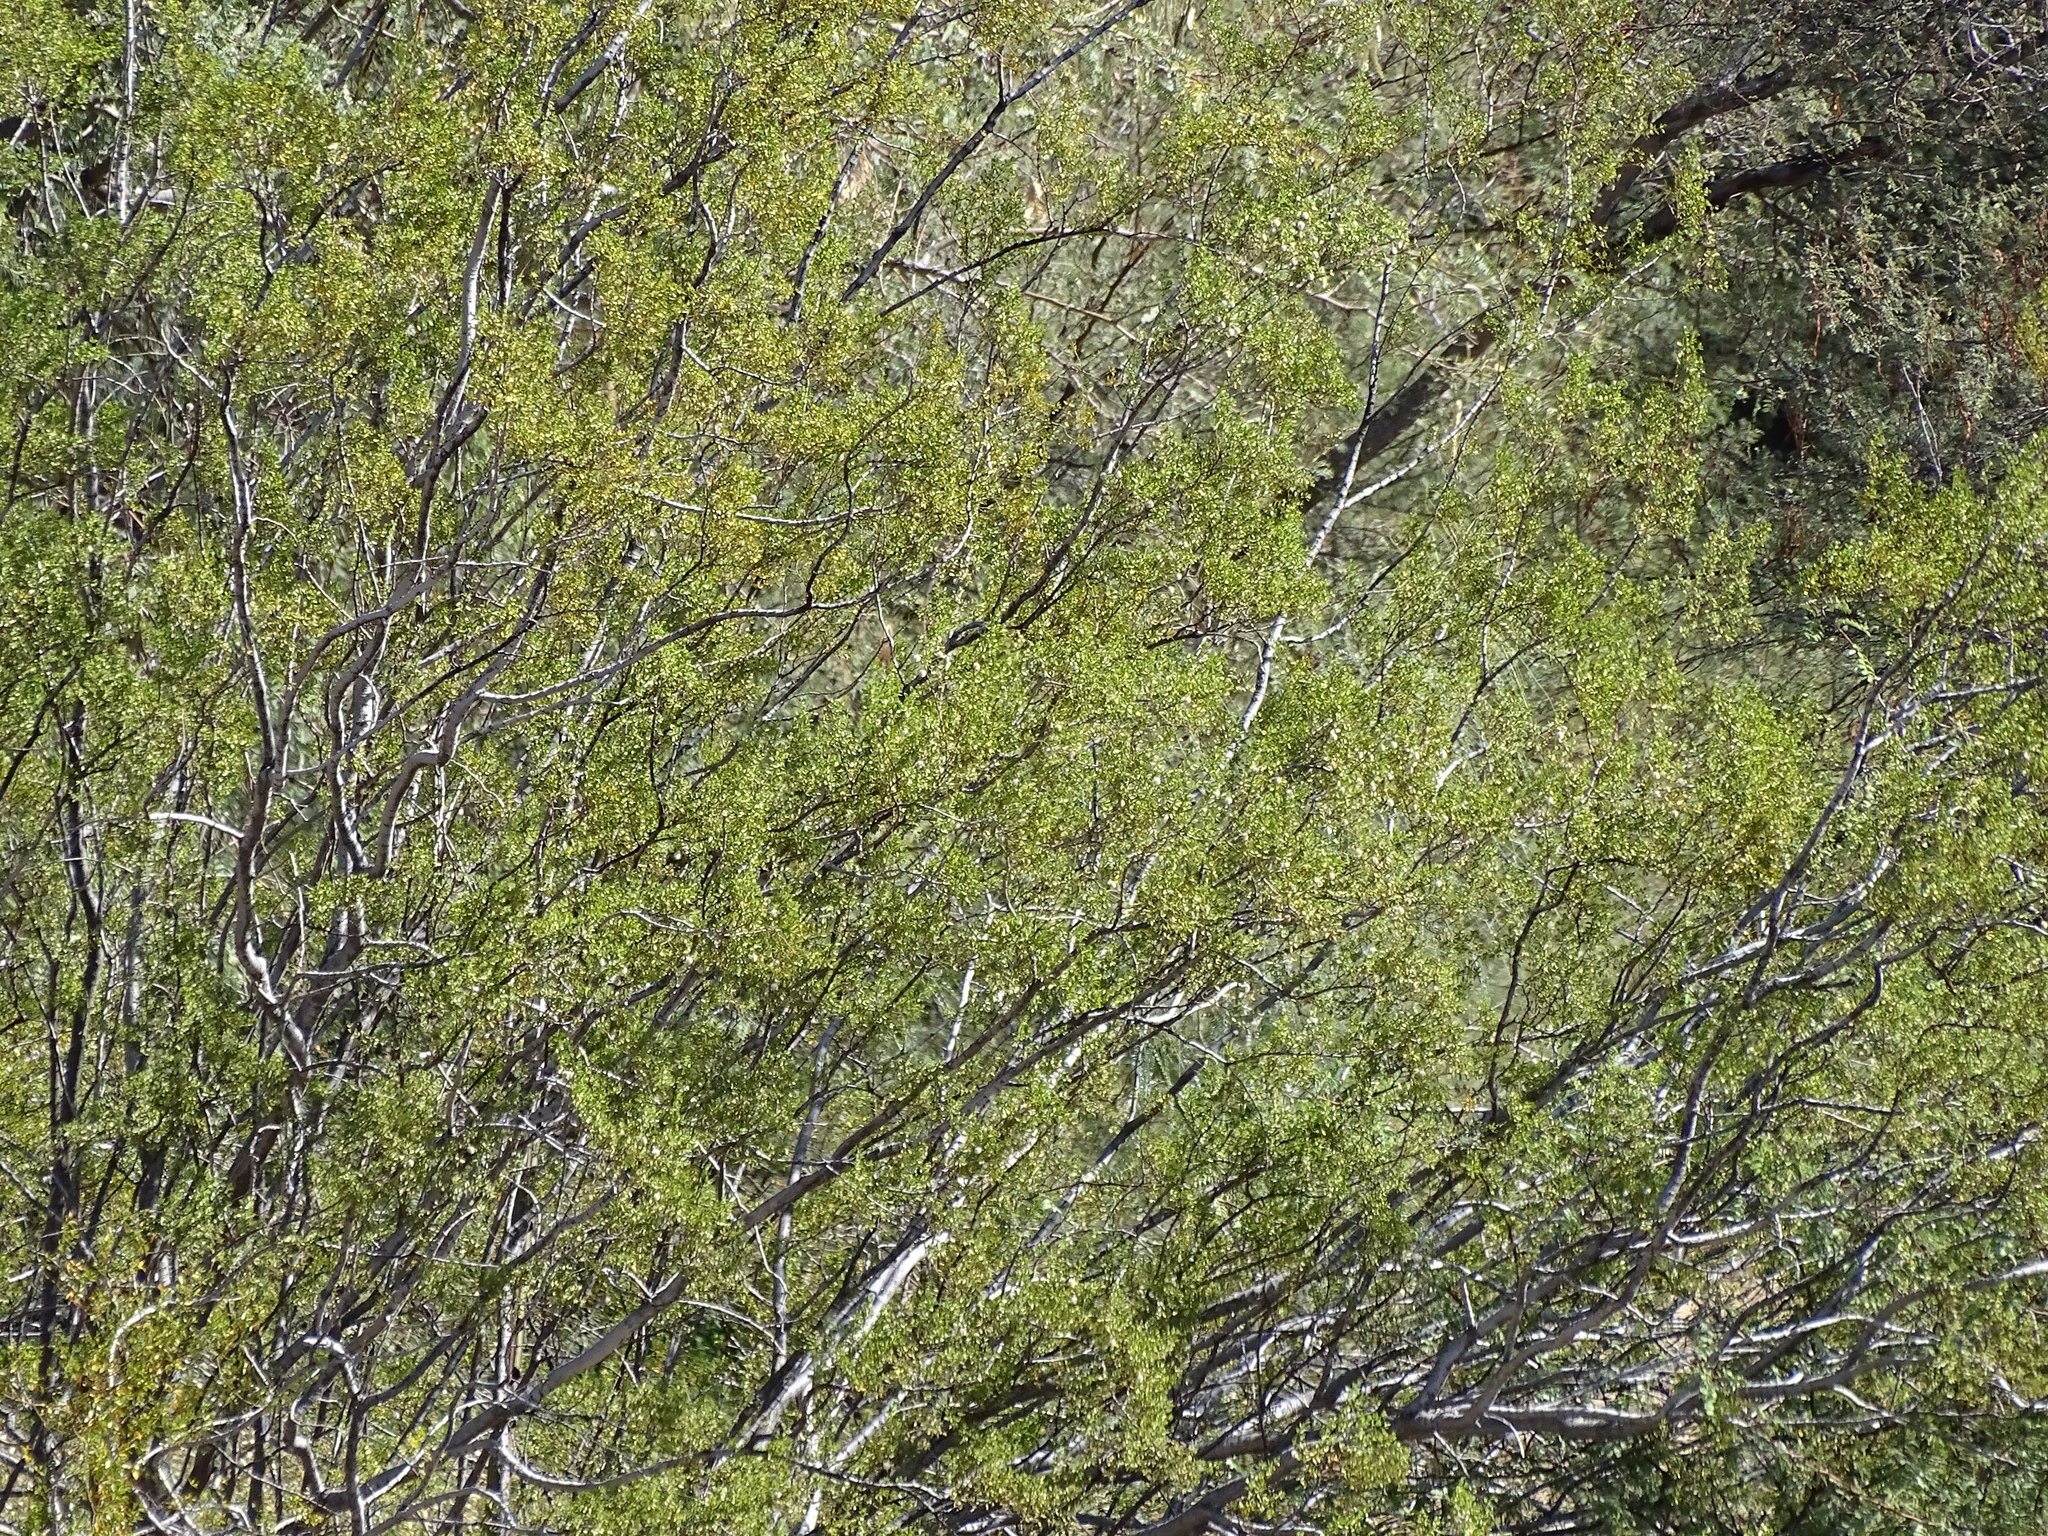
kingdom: Plantae
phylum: Tracheophyta
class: Magnoliopsida
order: Zygophyllales
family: Zygophyllaceae
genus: Larrea
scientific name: Larrea tridentata
